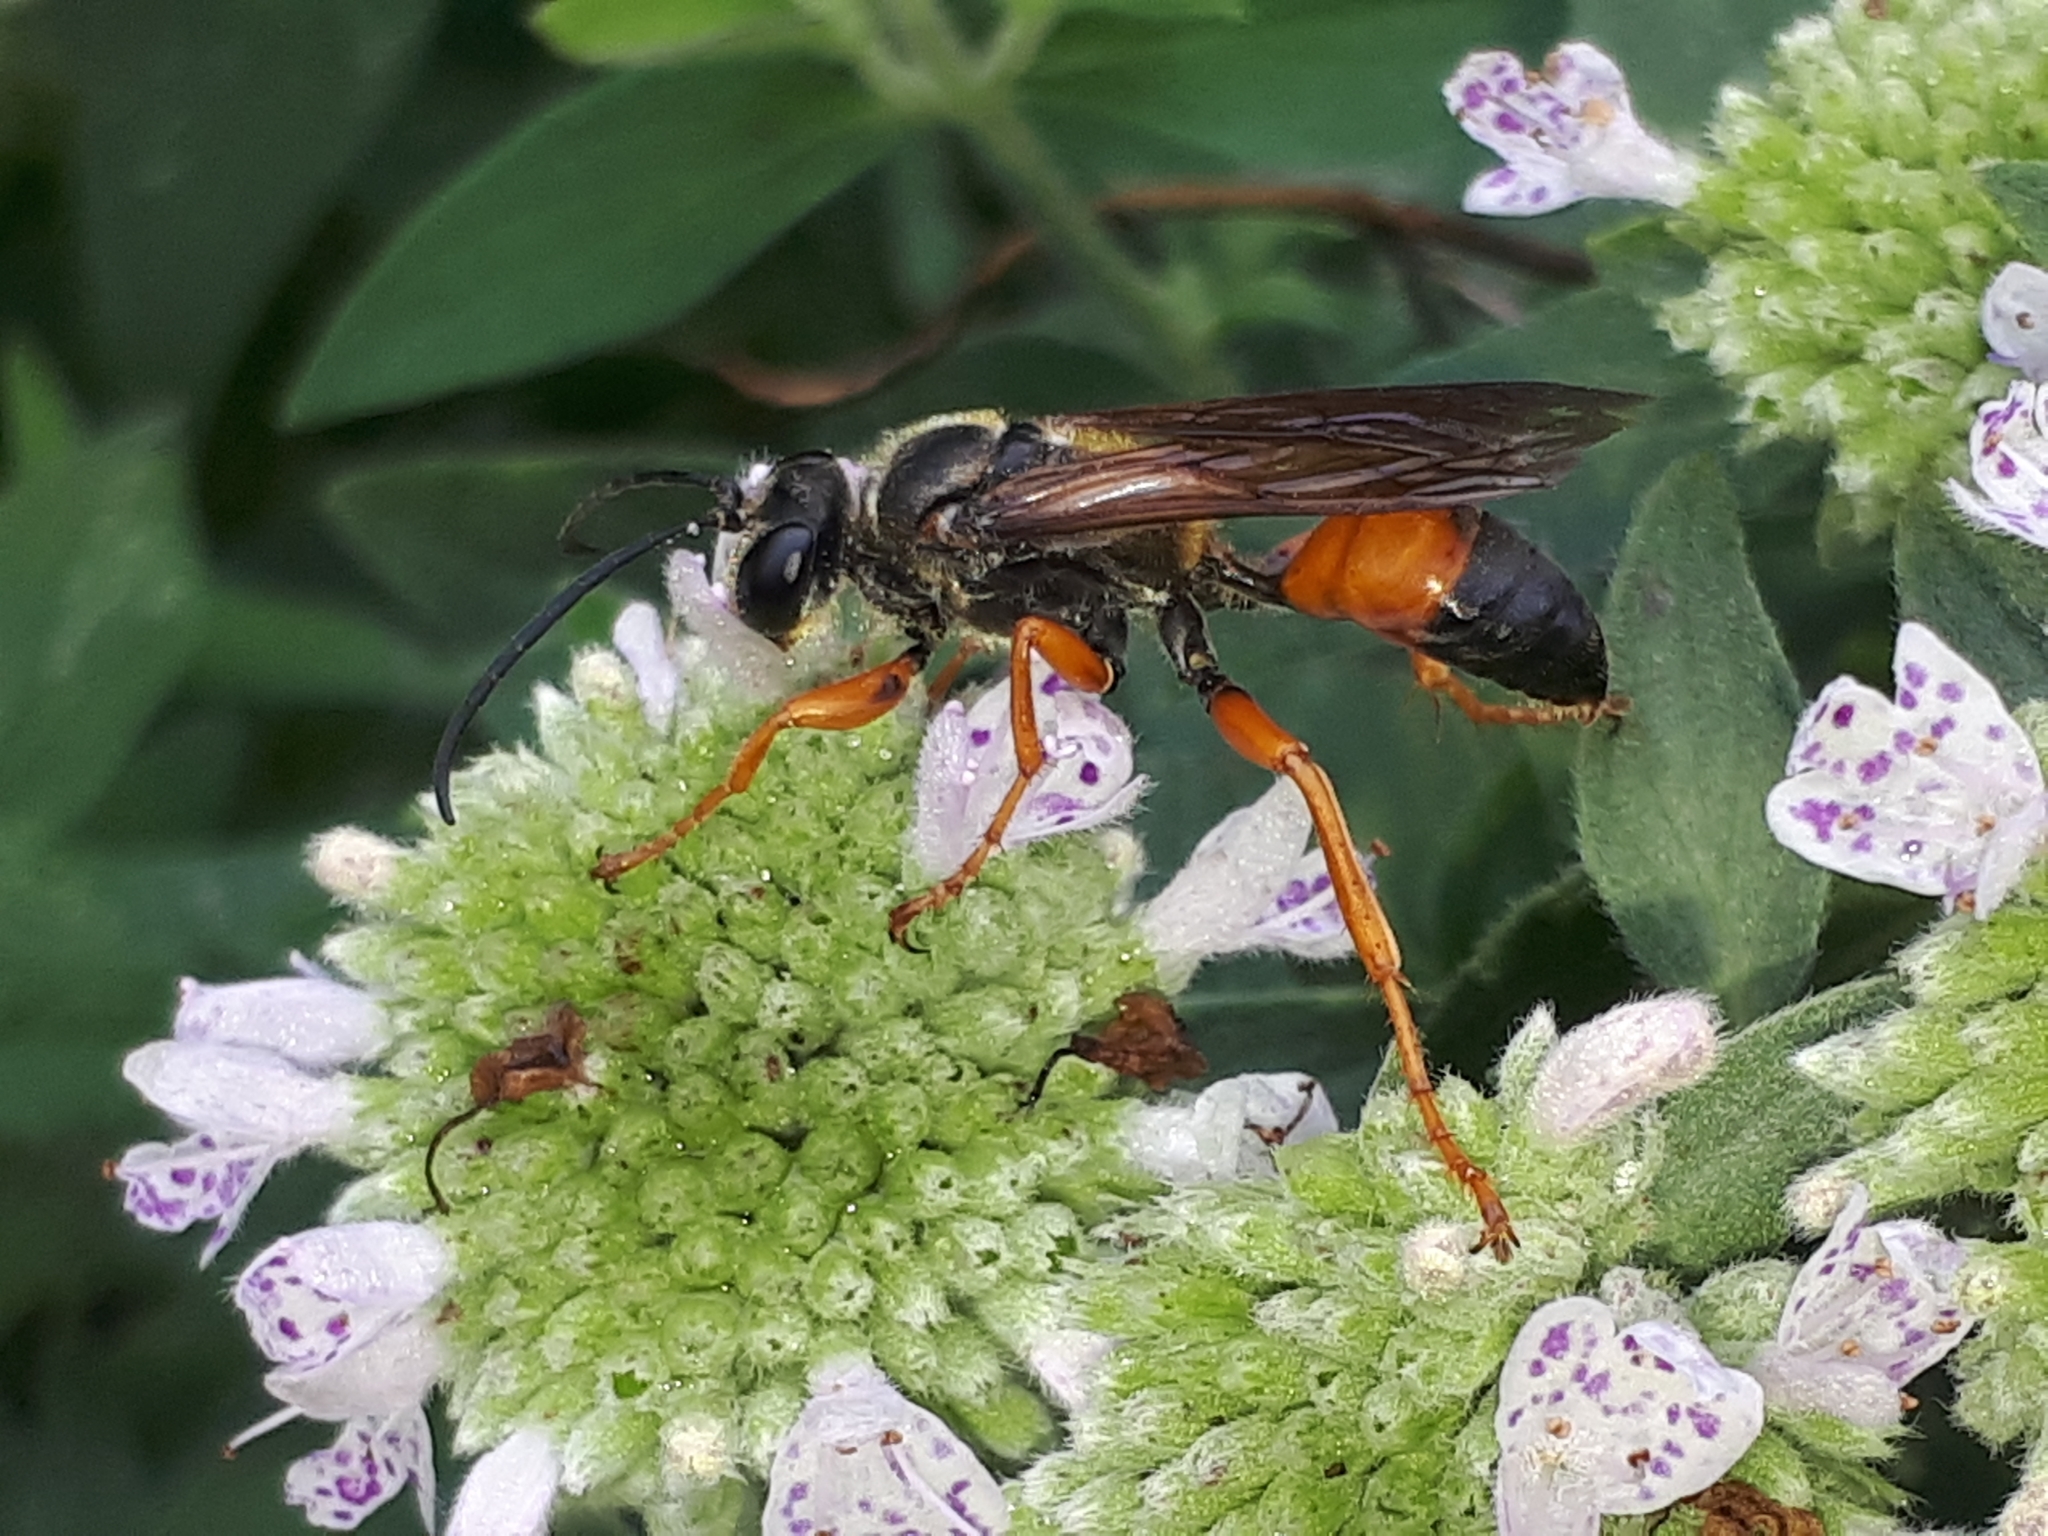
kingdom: Animalia
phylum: Arthropoda
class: Insecta
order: Hymenoptera
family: Sphecidae
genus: Sphex
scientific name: Sphex ichneumoneus
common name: Great golden digger wasp
